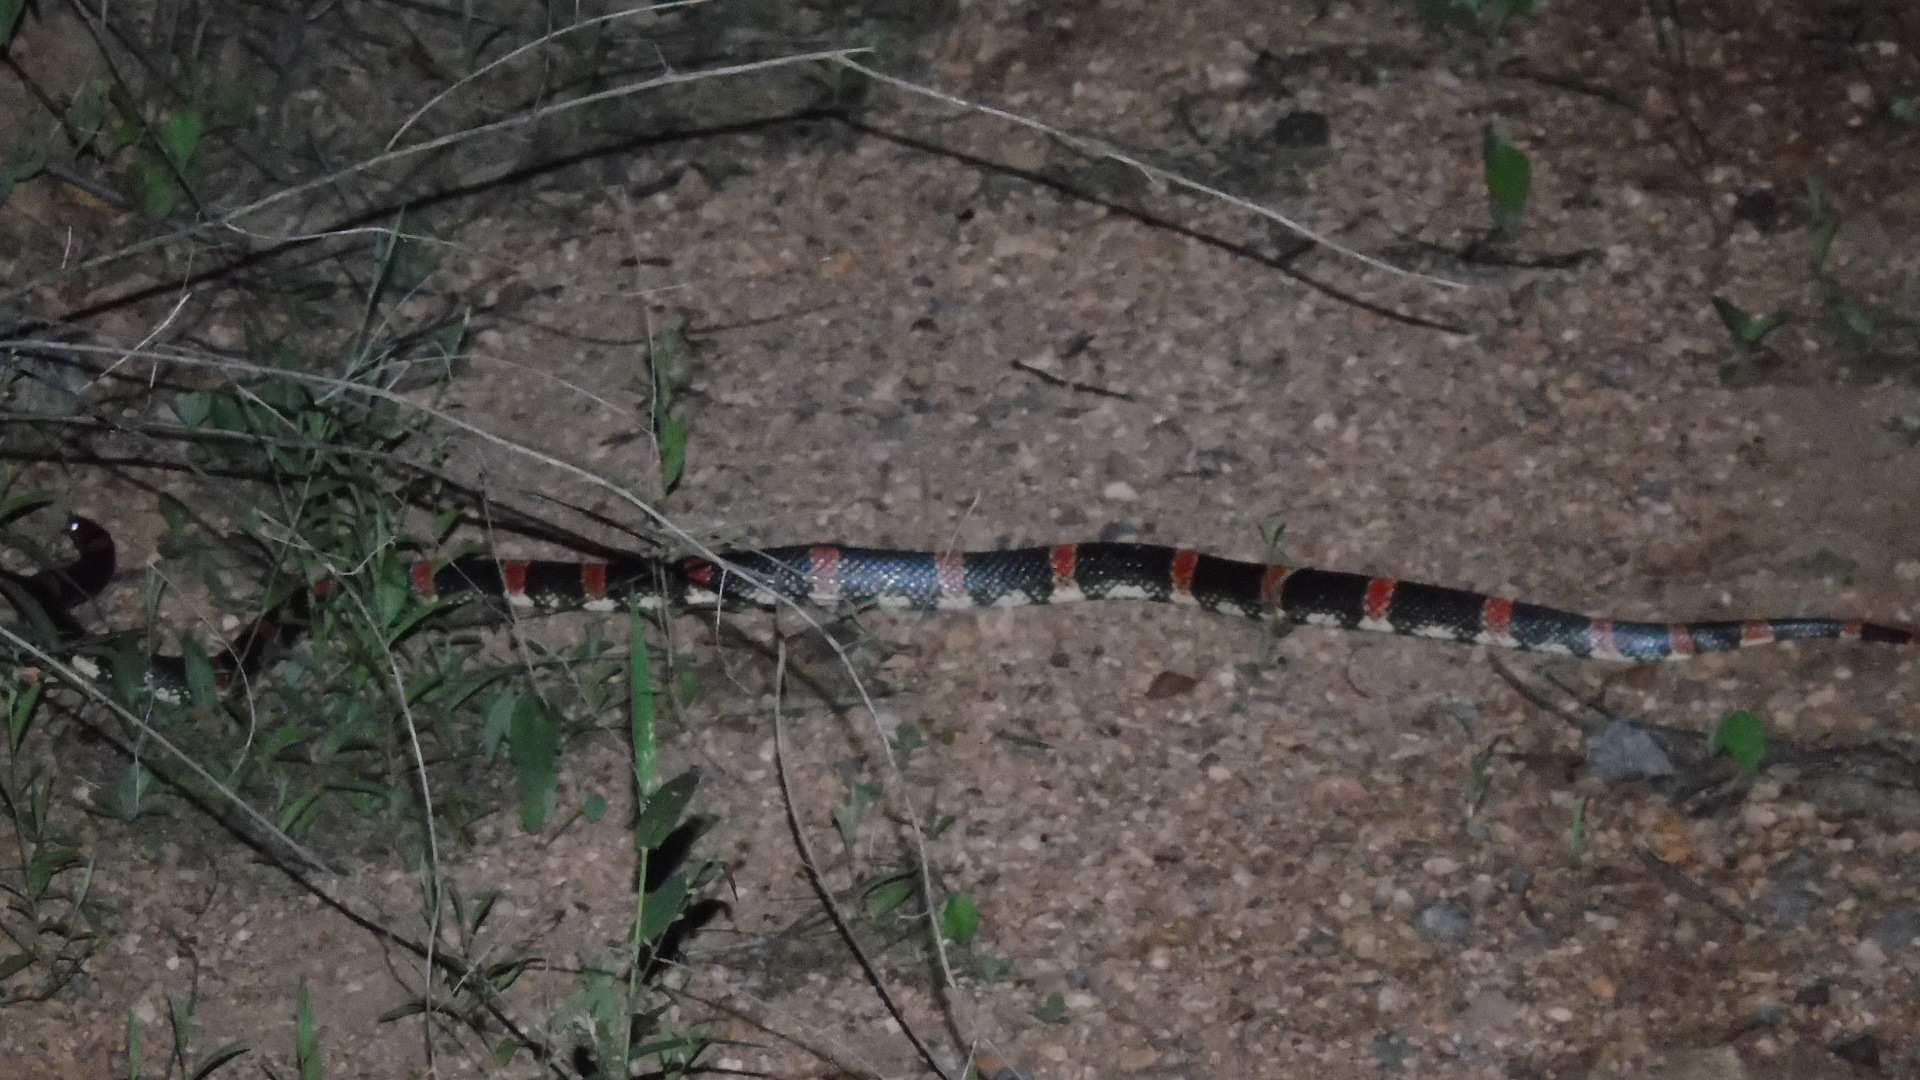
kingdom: Animalia
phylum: Chordata
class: Squamata
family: Colubridae
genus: Rhinocheilus
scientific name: Rhinocheilus antonii
